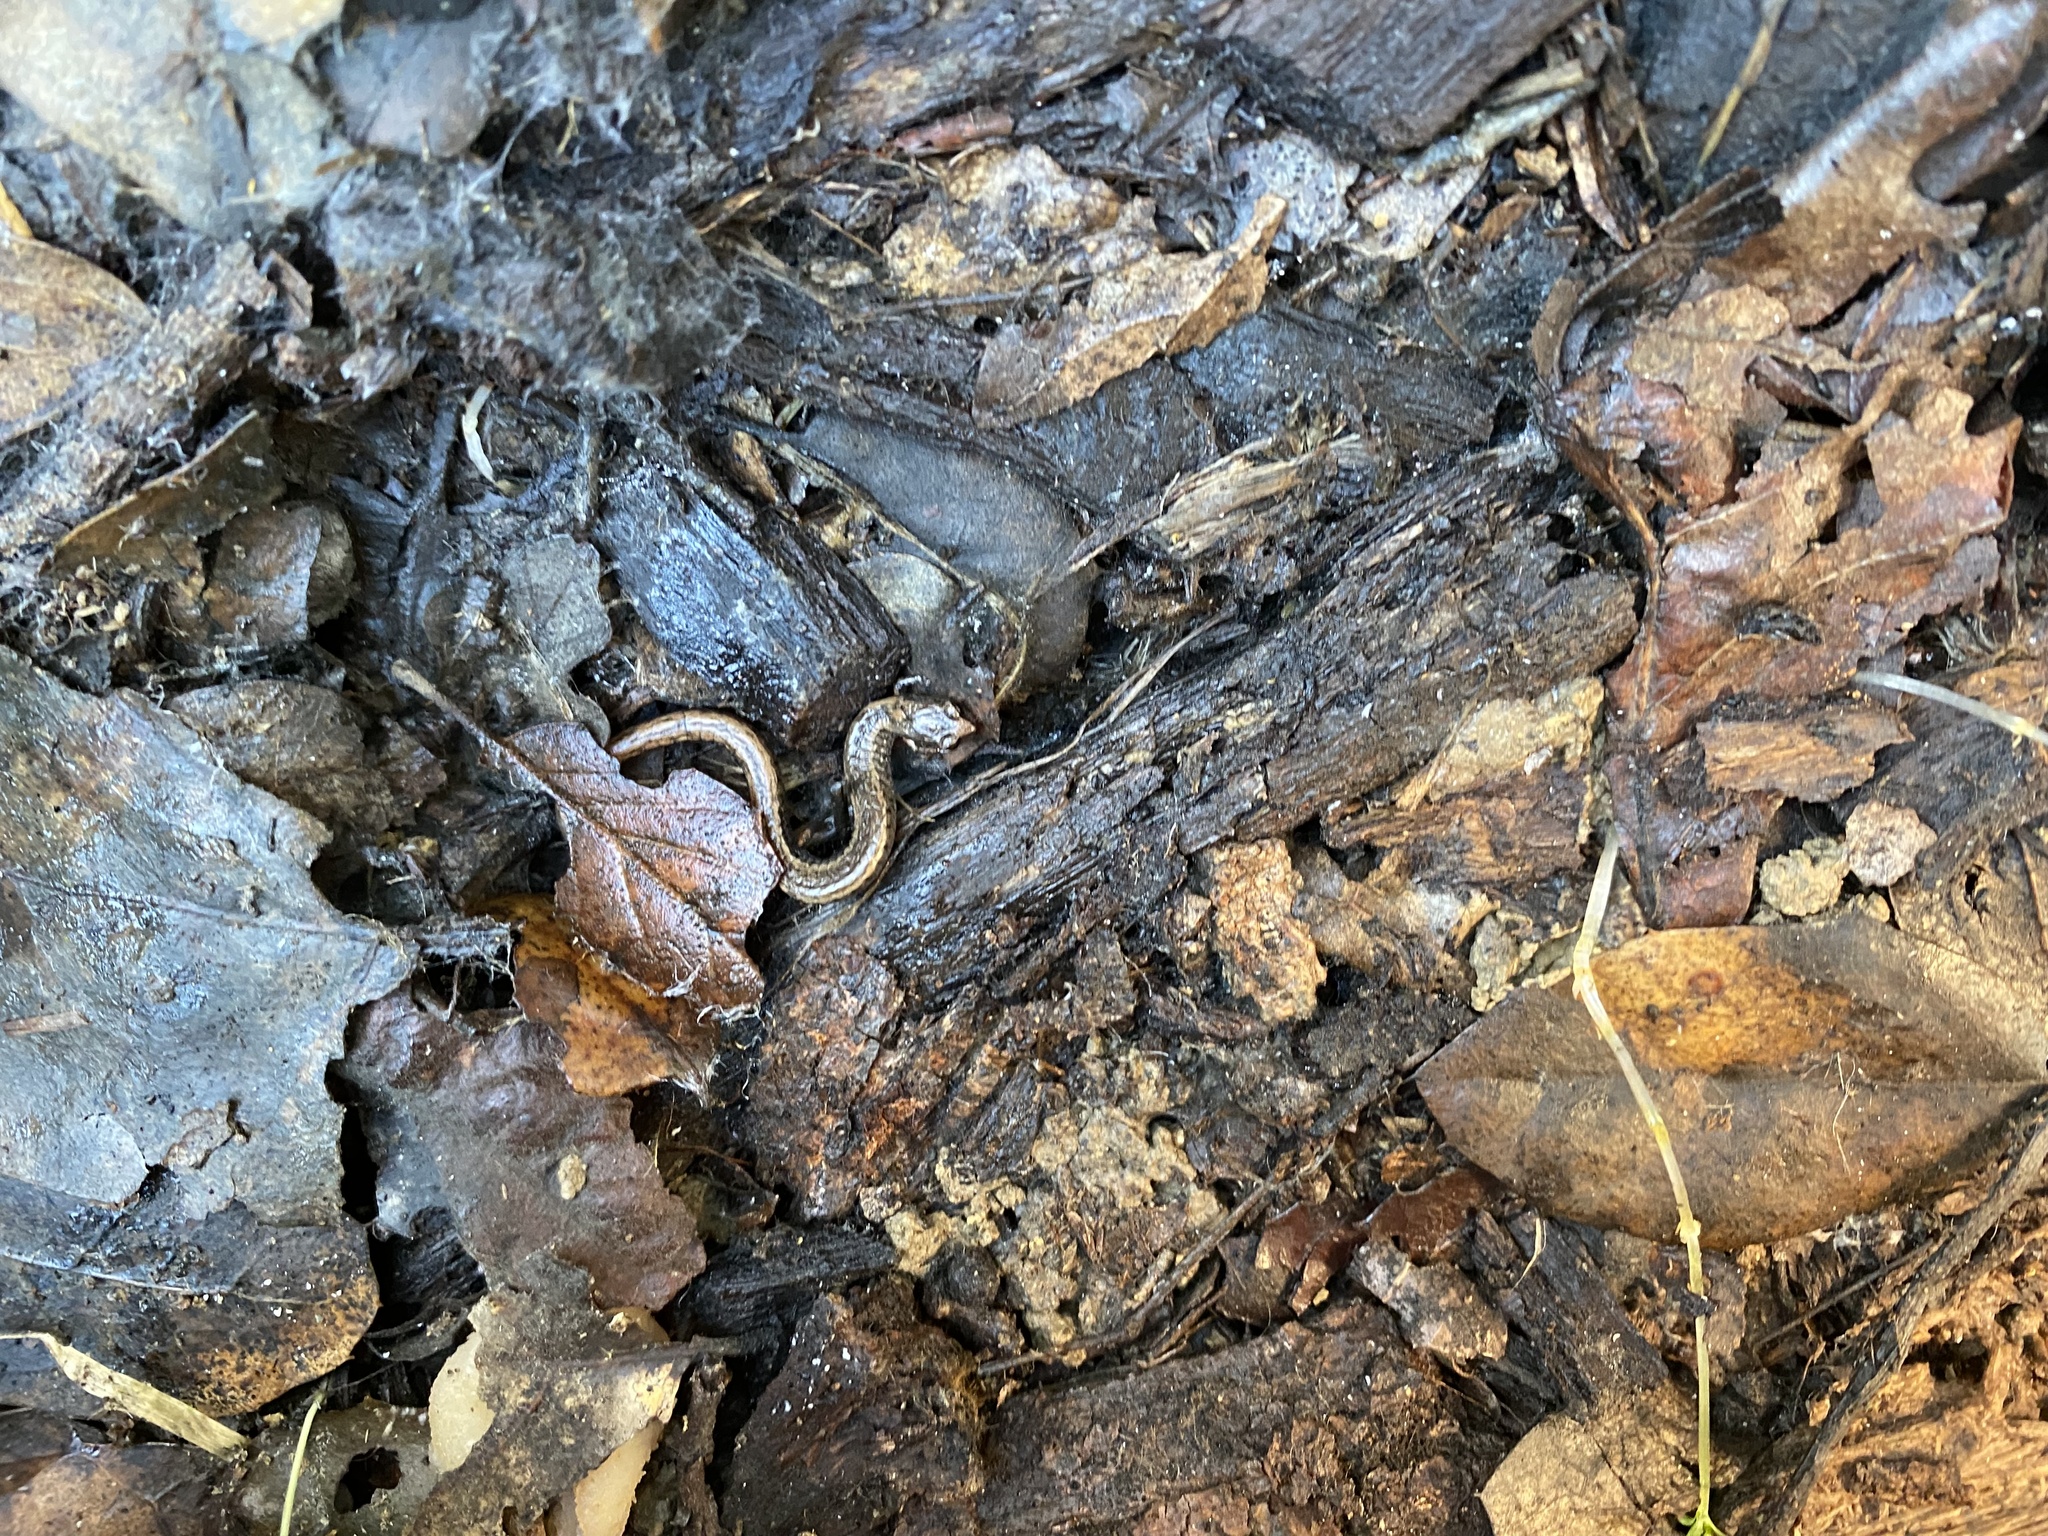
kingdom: Animalia
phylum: Chordata
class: Amphibia
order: Caudata
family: Plethodontidae
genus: Batrachoseps
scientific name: Batrachoseps attenuatus
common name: California slender salamander
